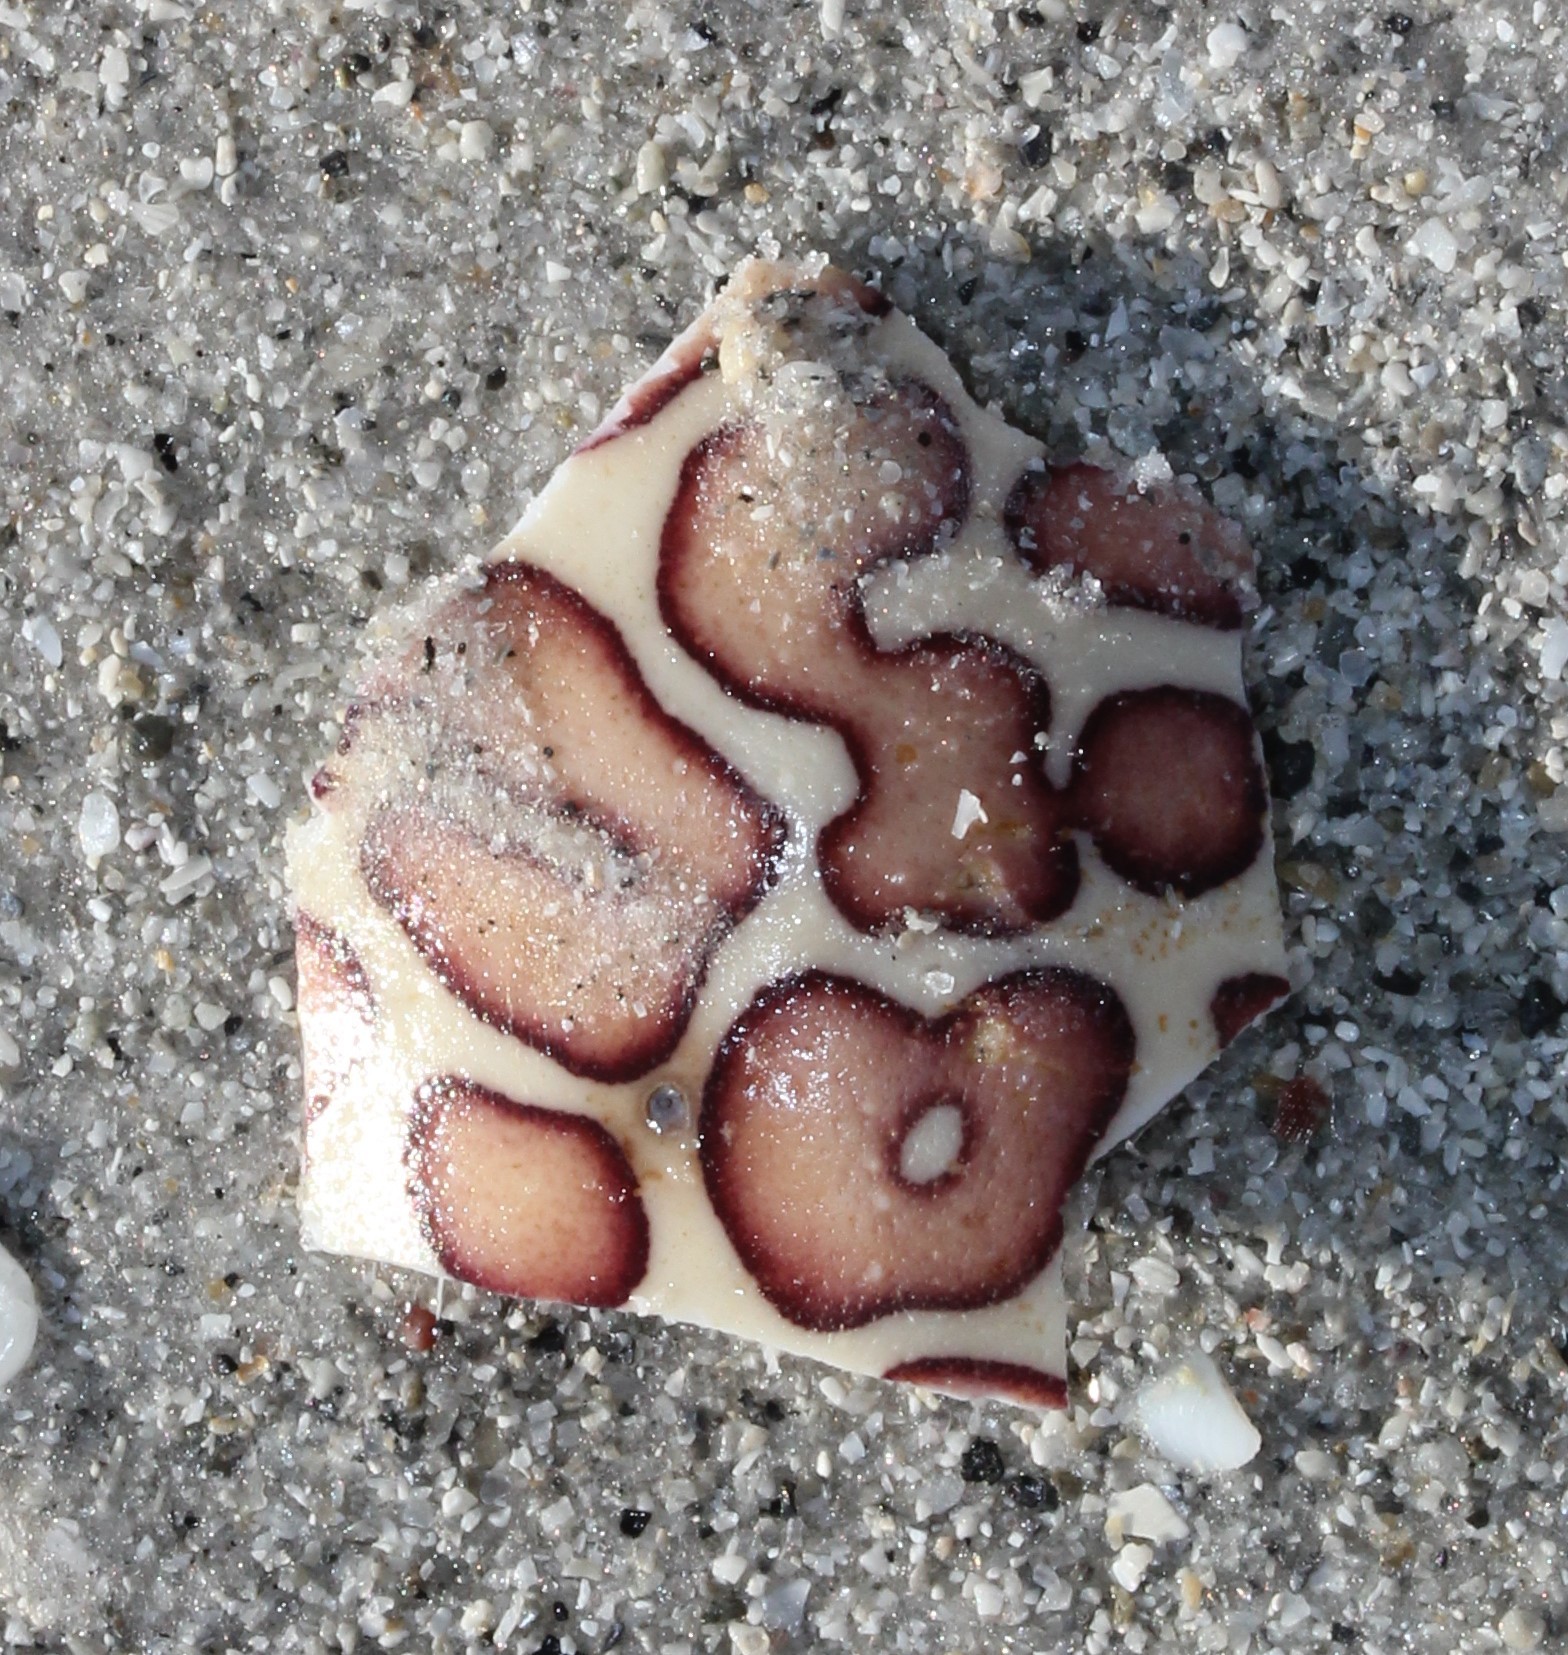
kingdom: Animalia
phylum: Arthropoda
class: Malacostraca
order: Decapoda
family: Aethridae
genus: Hepatus
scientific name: Hepatus epheliticus
